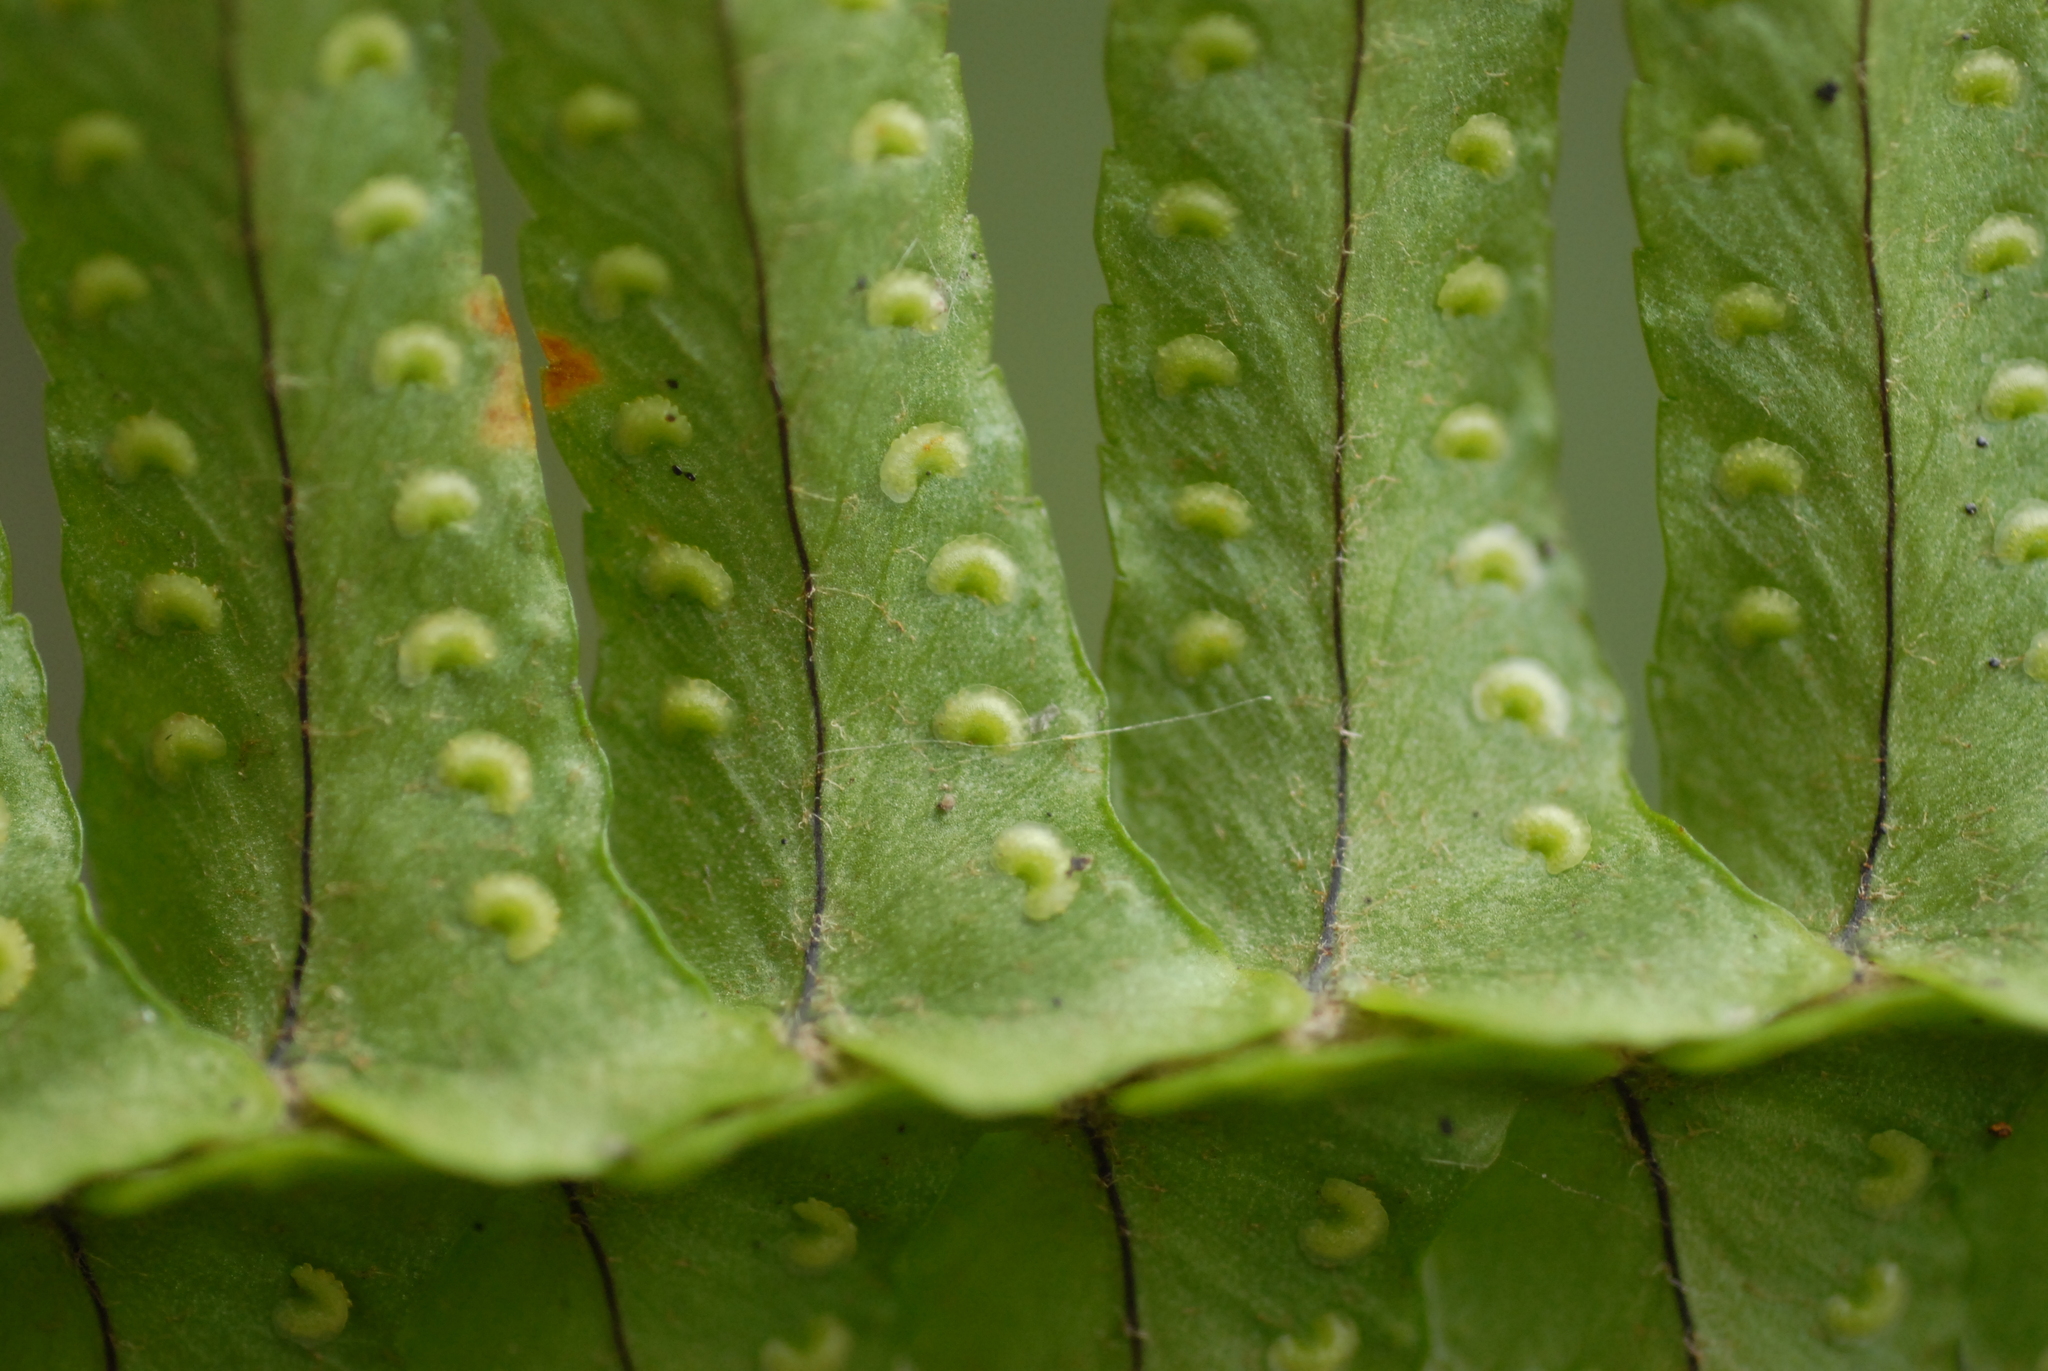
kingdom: Plantae
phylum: Tracheophyta
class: Polypodiopsida
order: Polypodiales
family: Nephrolepidaceae
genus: Nephrolepis
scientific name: Nephrolepis cordifolia
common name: Narrow swordfern
